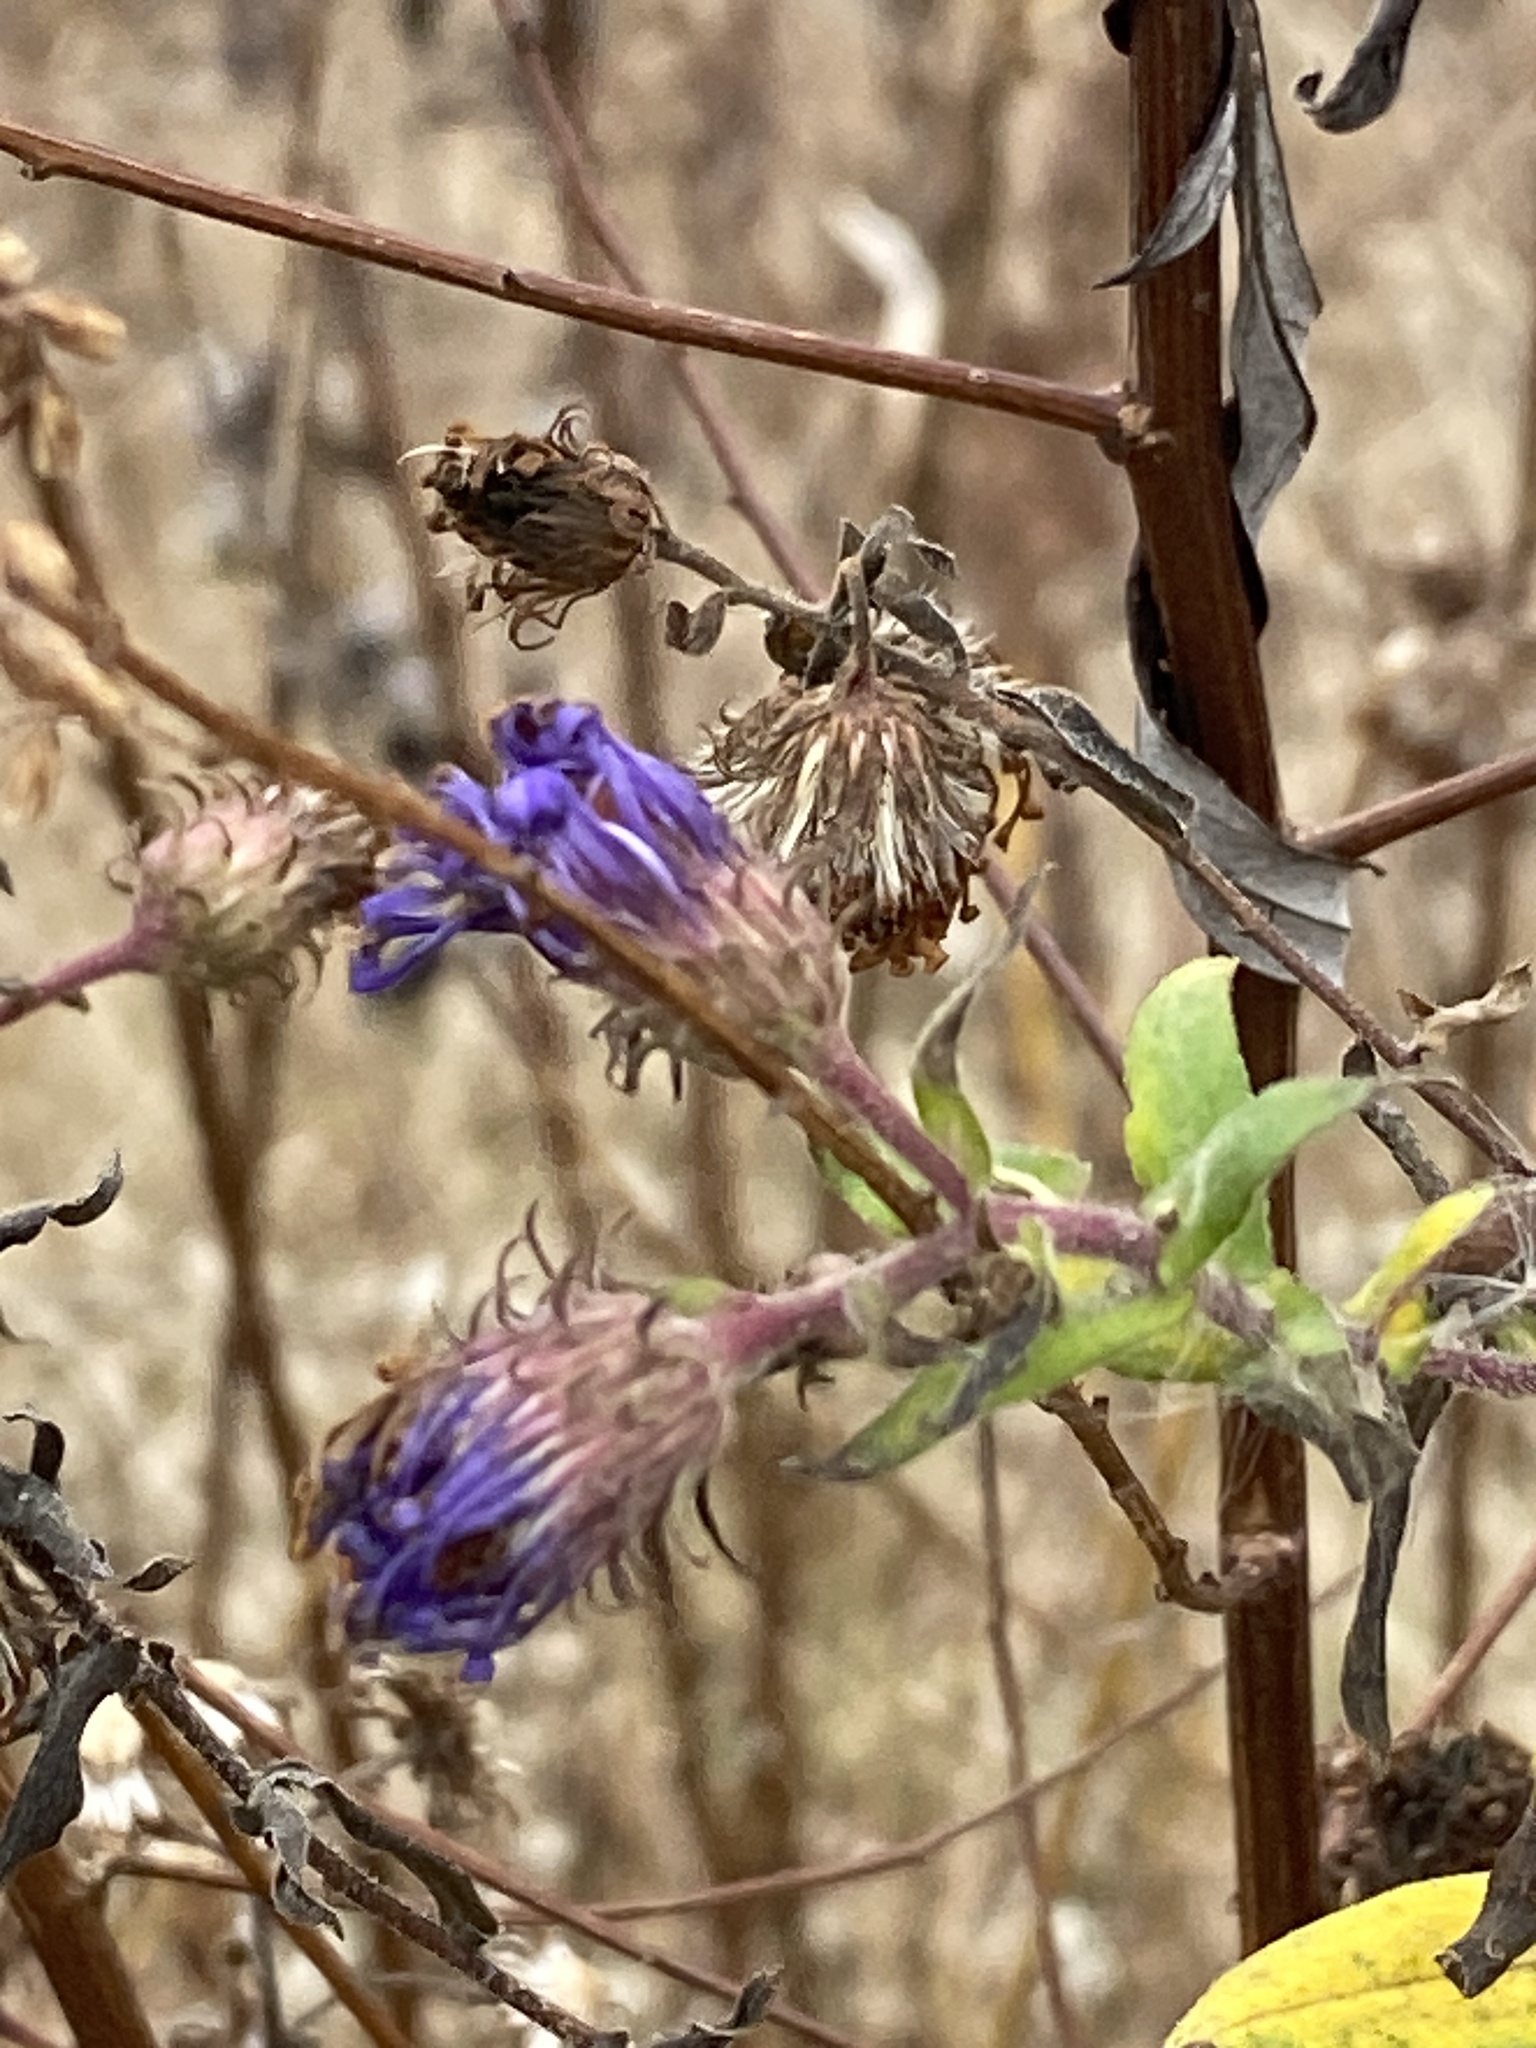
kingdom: Plantae
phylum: Tracheophyta
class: Magnoliopsida
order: Asterales
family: Asteraceae
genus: Symphyotrichum
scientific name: Symphyotrichum novae-angliae
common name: Michaelmas daisy
